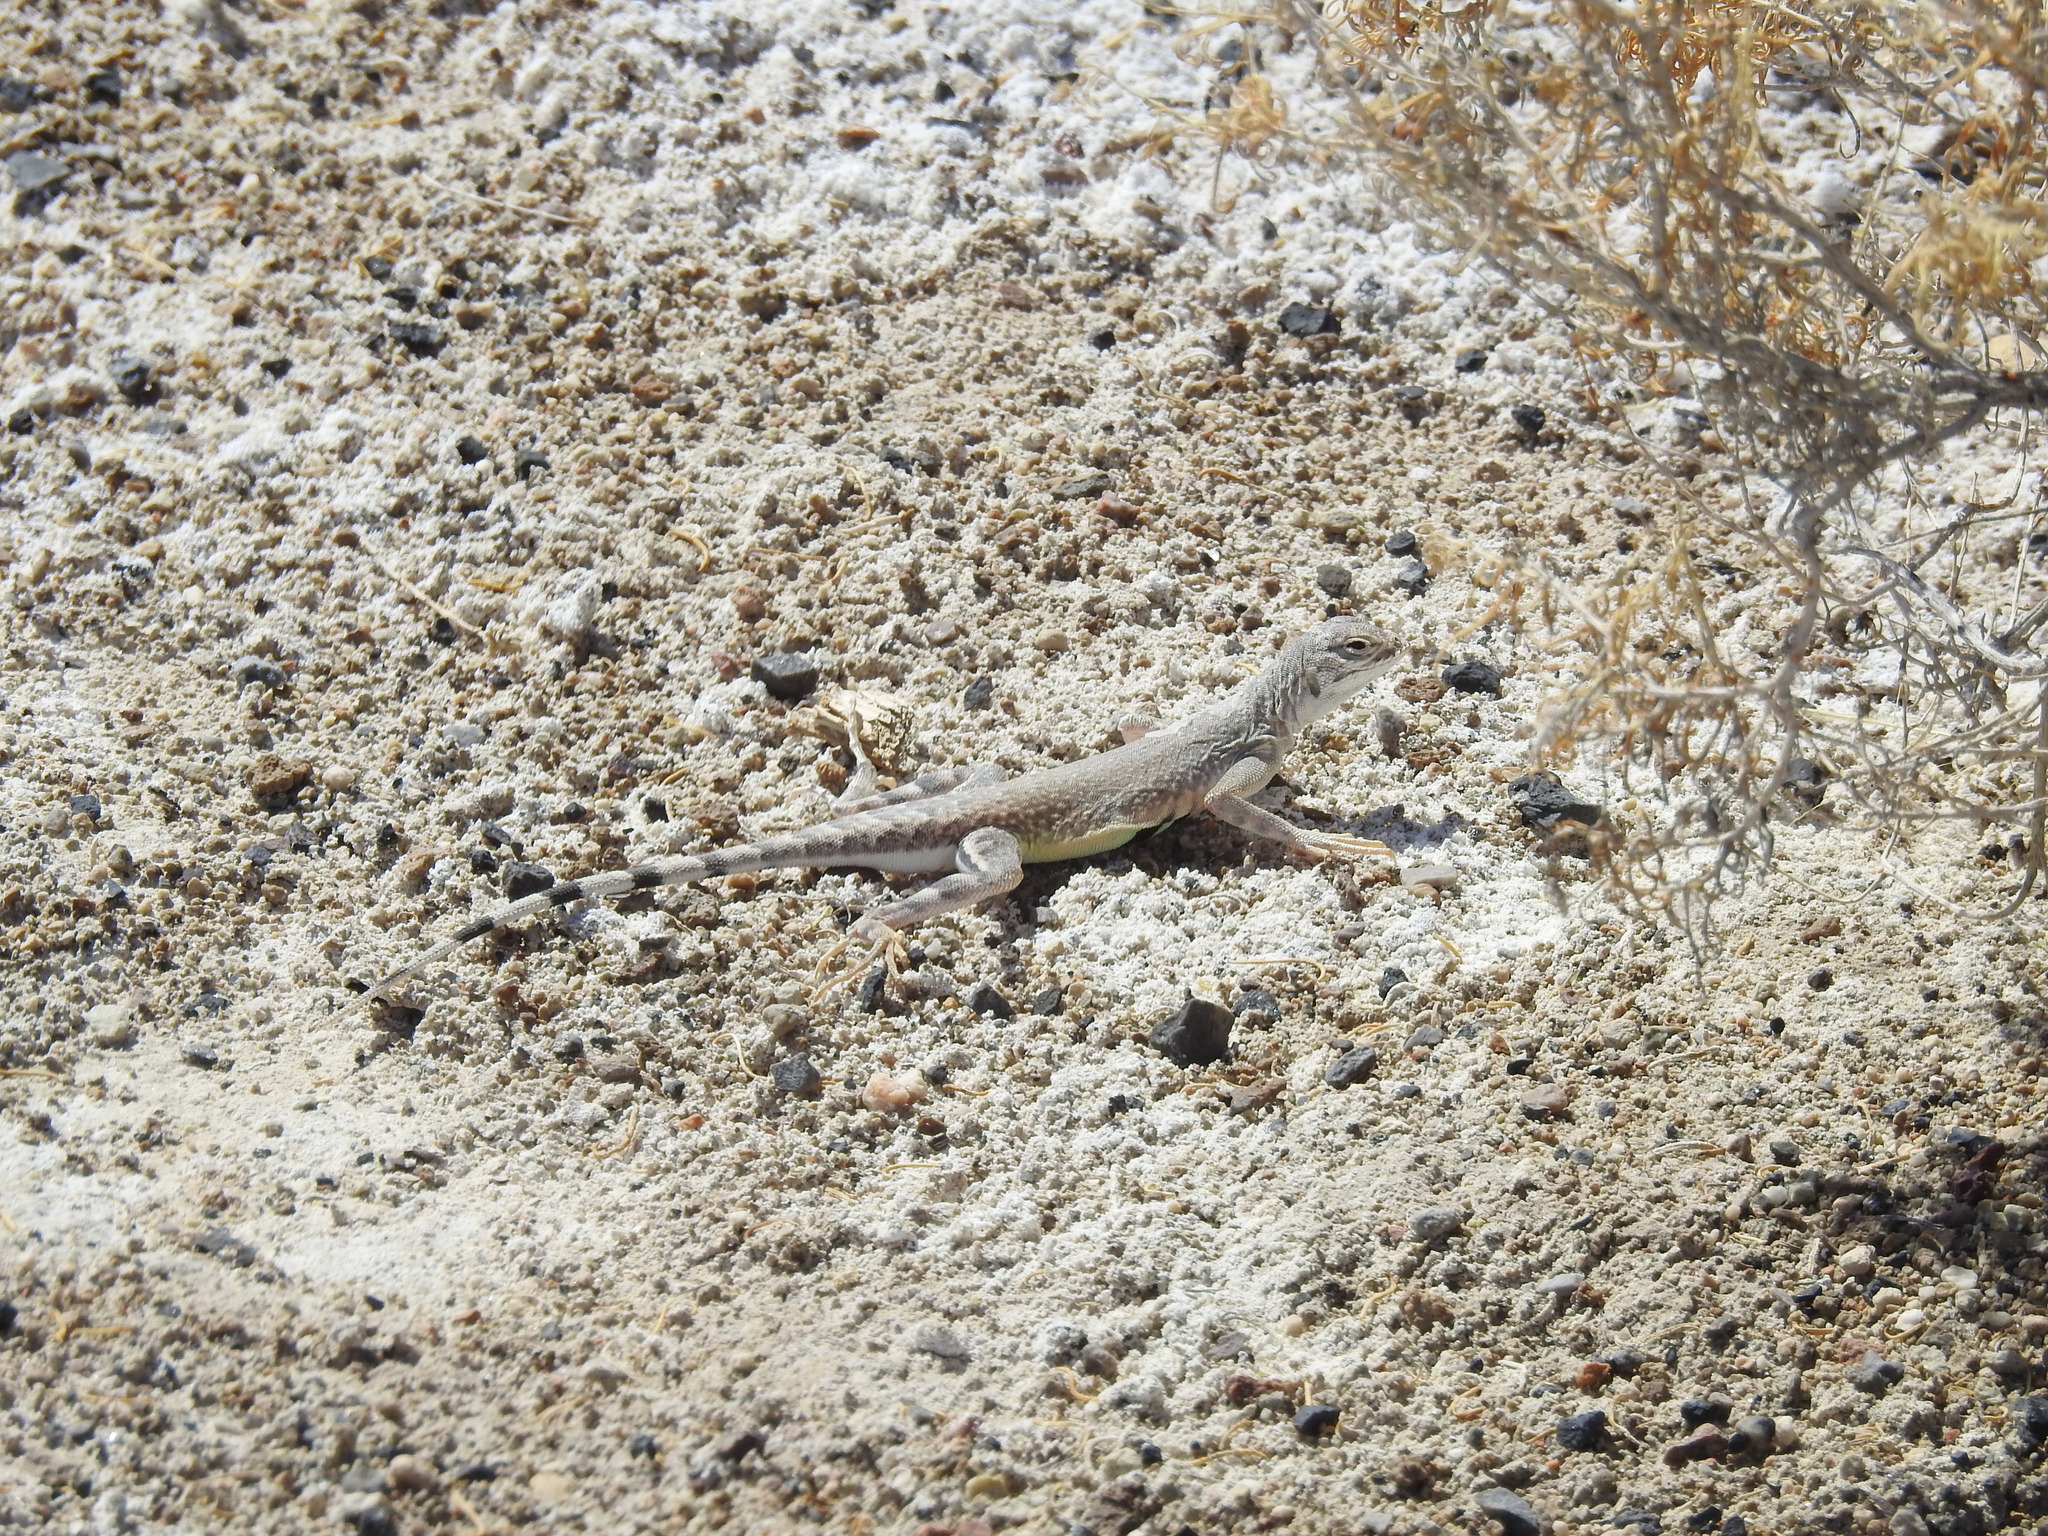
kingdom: Animalia
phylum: Chordata
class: Squamata
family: Phrynosomatidae
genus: Callisaurus
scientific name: Callisaurus draconoides
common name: Zebra-tailed lizard
